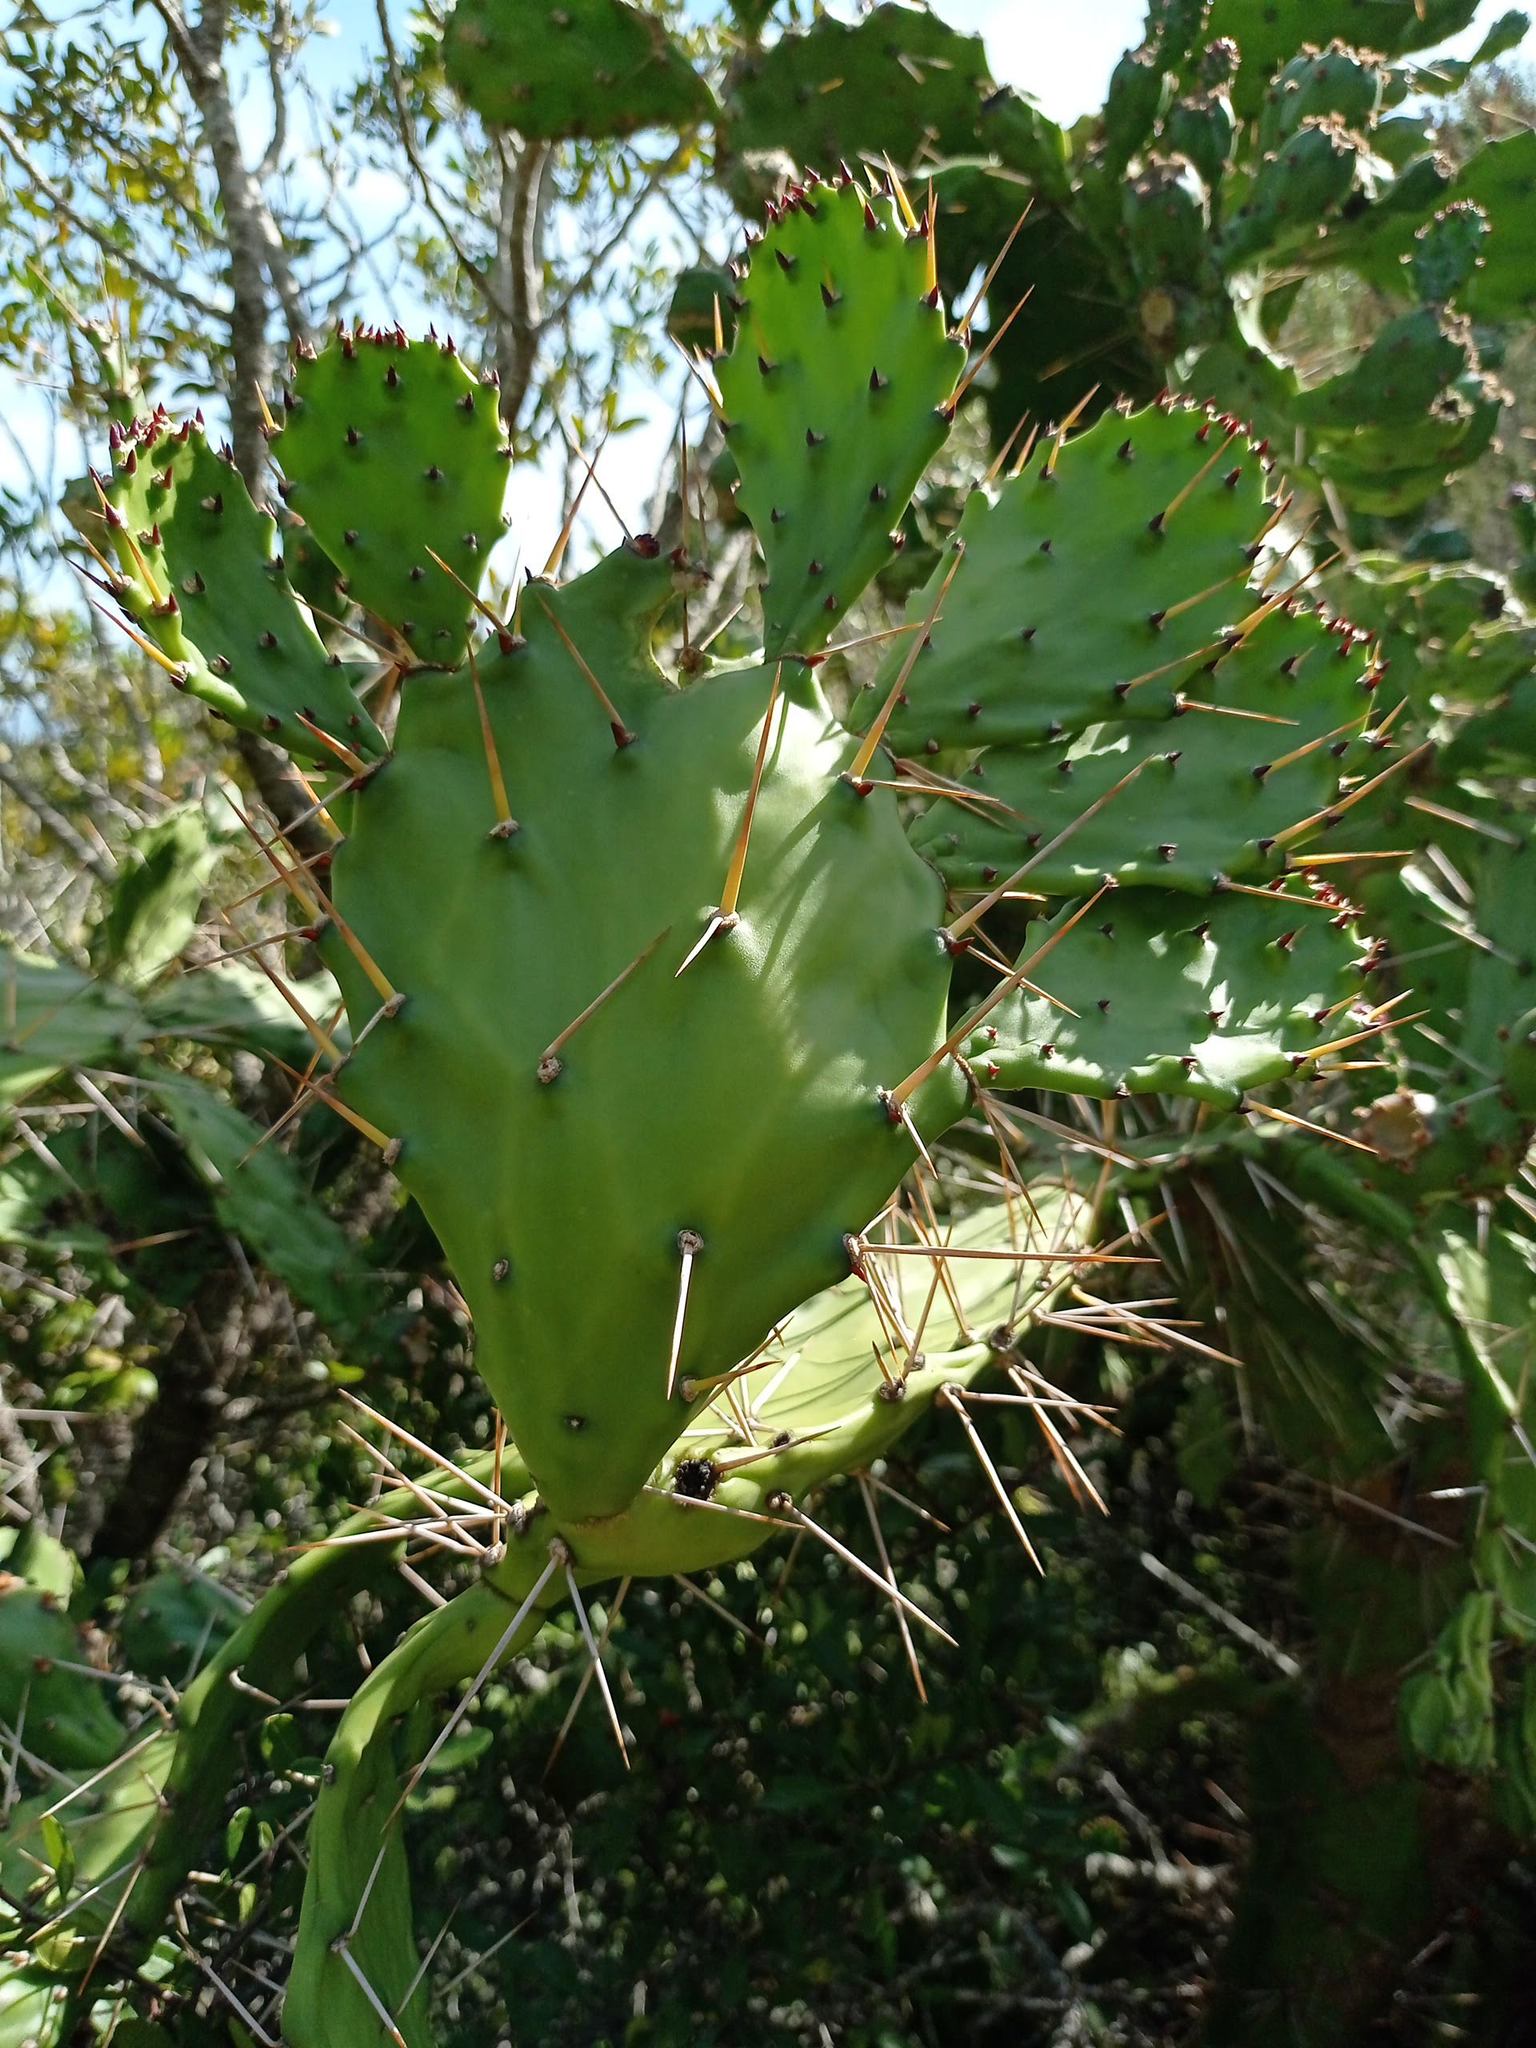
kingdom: Plantae
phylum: Tracheophyta
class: Magnoliopsida
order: Caryophyllales
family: Cactaceae
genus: Opuntia
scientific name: Opuntia monacantha
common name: Common pricklypear
